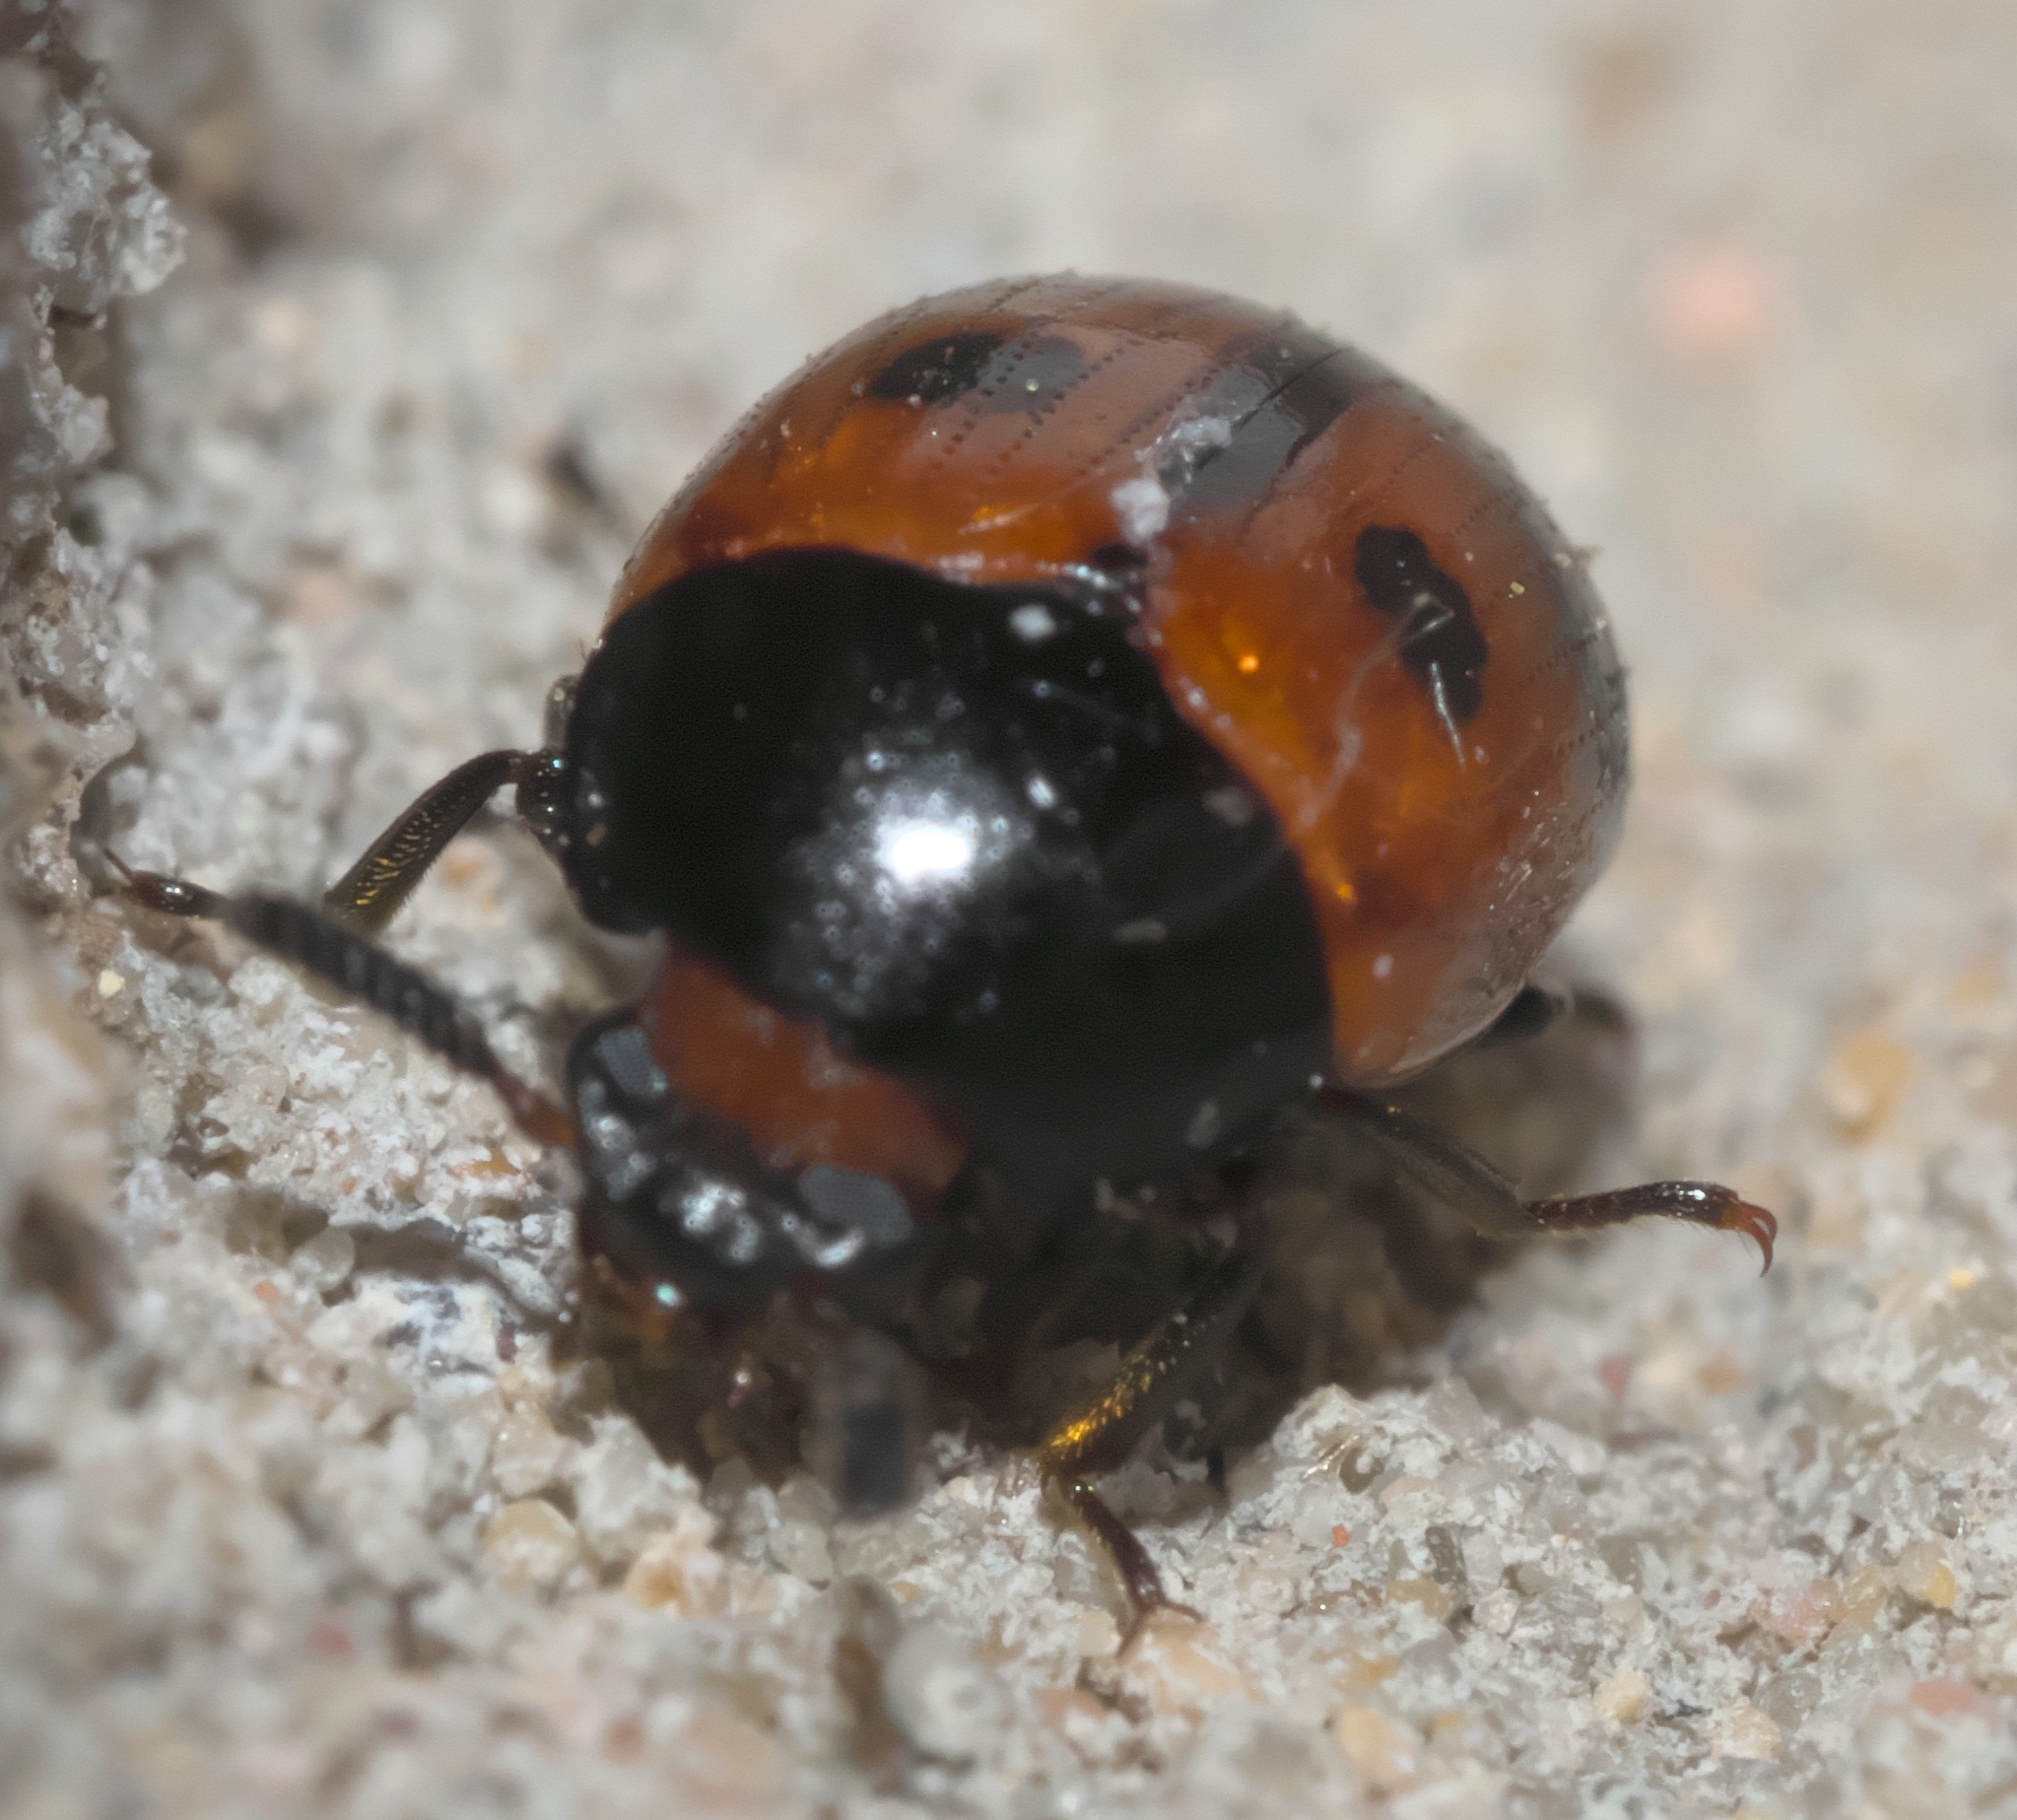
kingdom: Animalia
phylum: Arthropoda
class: Insecta
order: Coleoptera
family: Tenebrionidae
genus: Diaperis
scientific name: Diaperis maculata
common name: Darkling beetle
